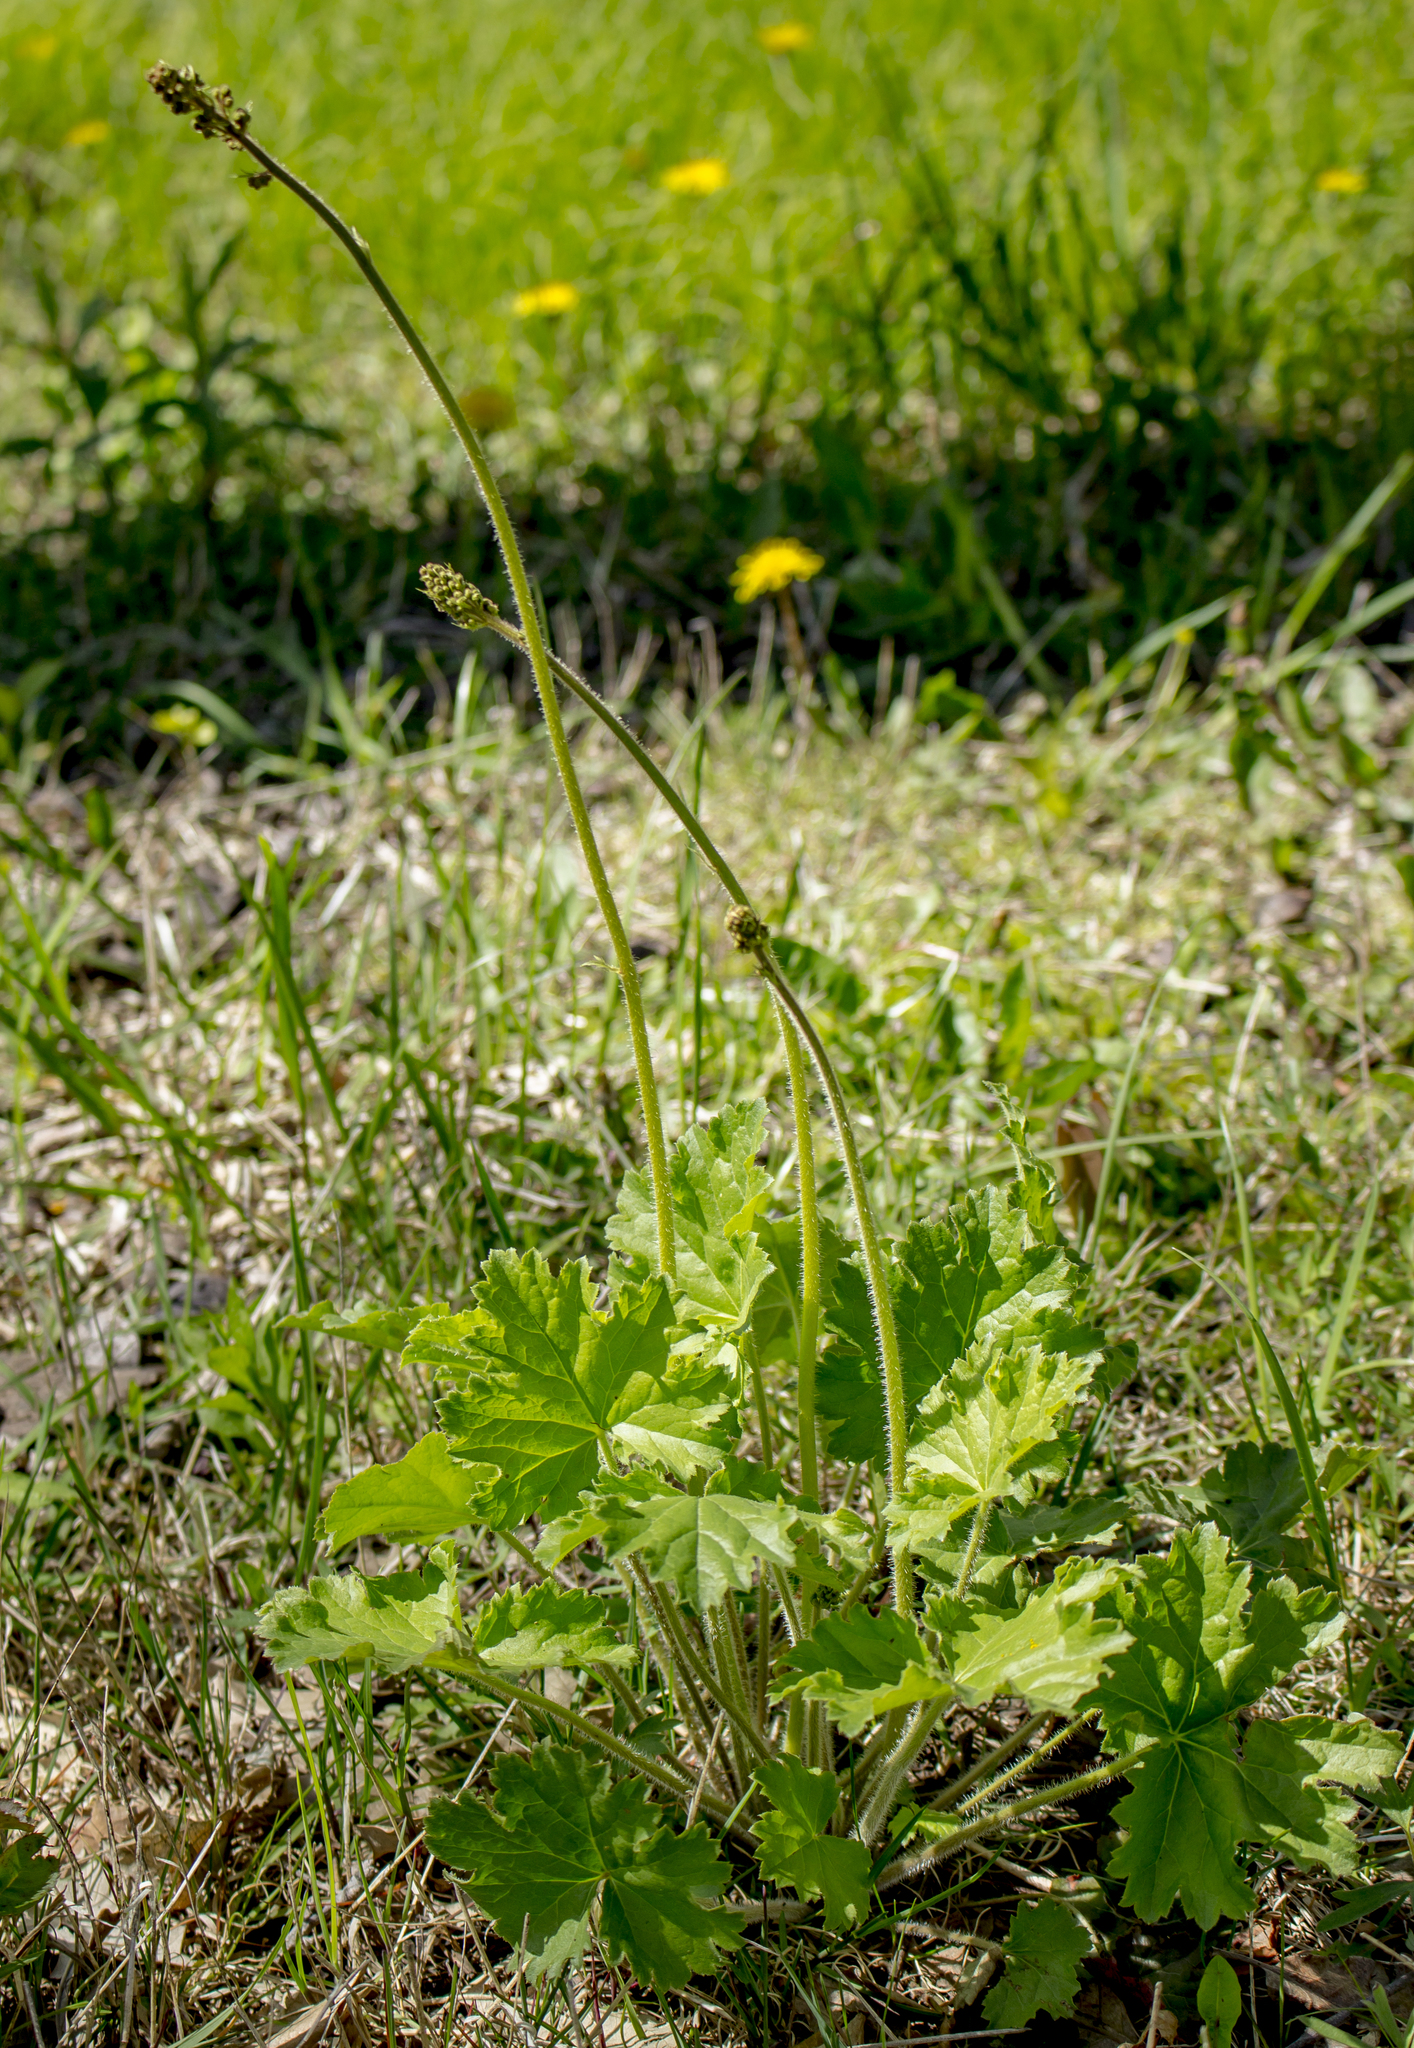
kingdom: Plantae
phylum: Tracheophyta
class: Magnoliopsida
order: Saxifragales
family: Saxifragaceae
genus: Heuchera
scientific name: Heuchera richardsonii
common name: Richardson's alumroot
